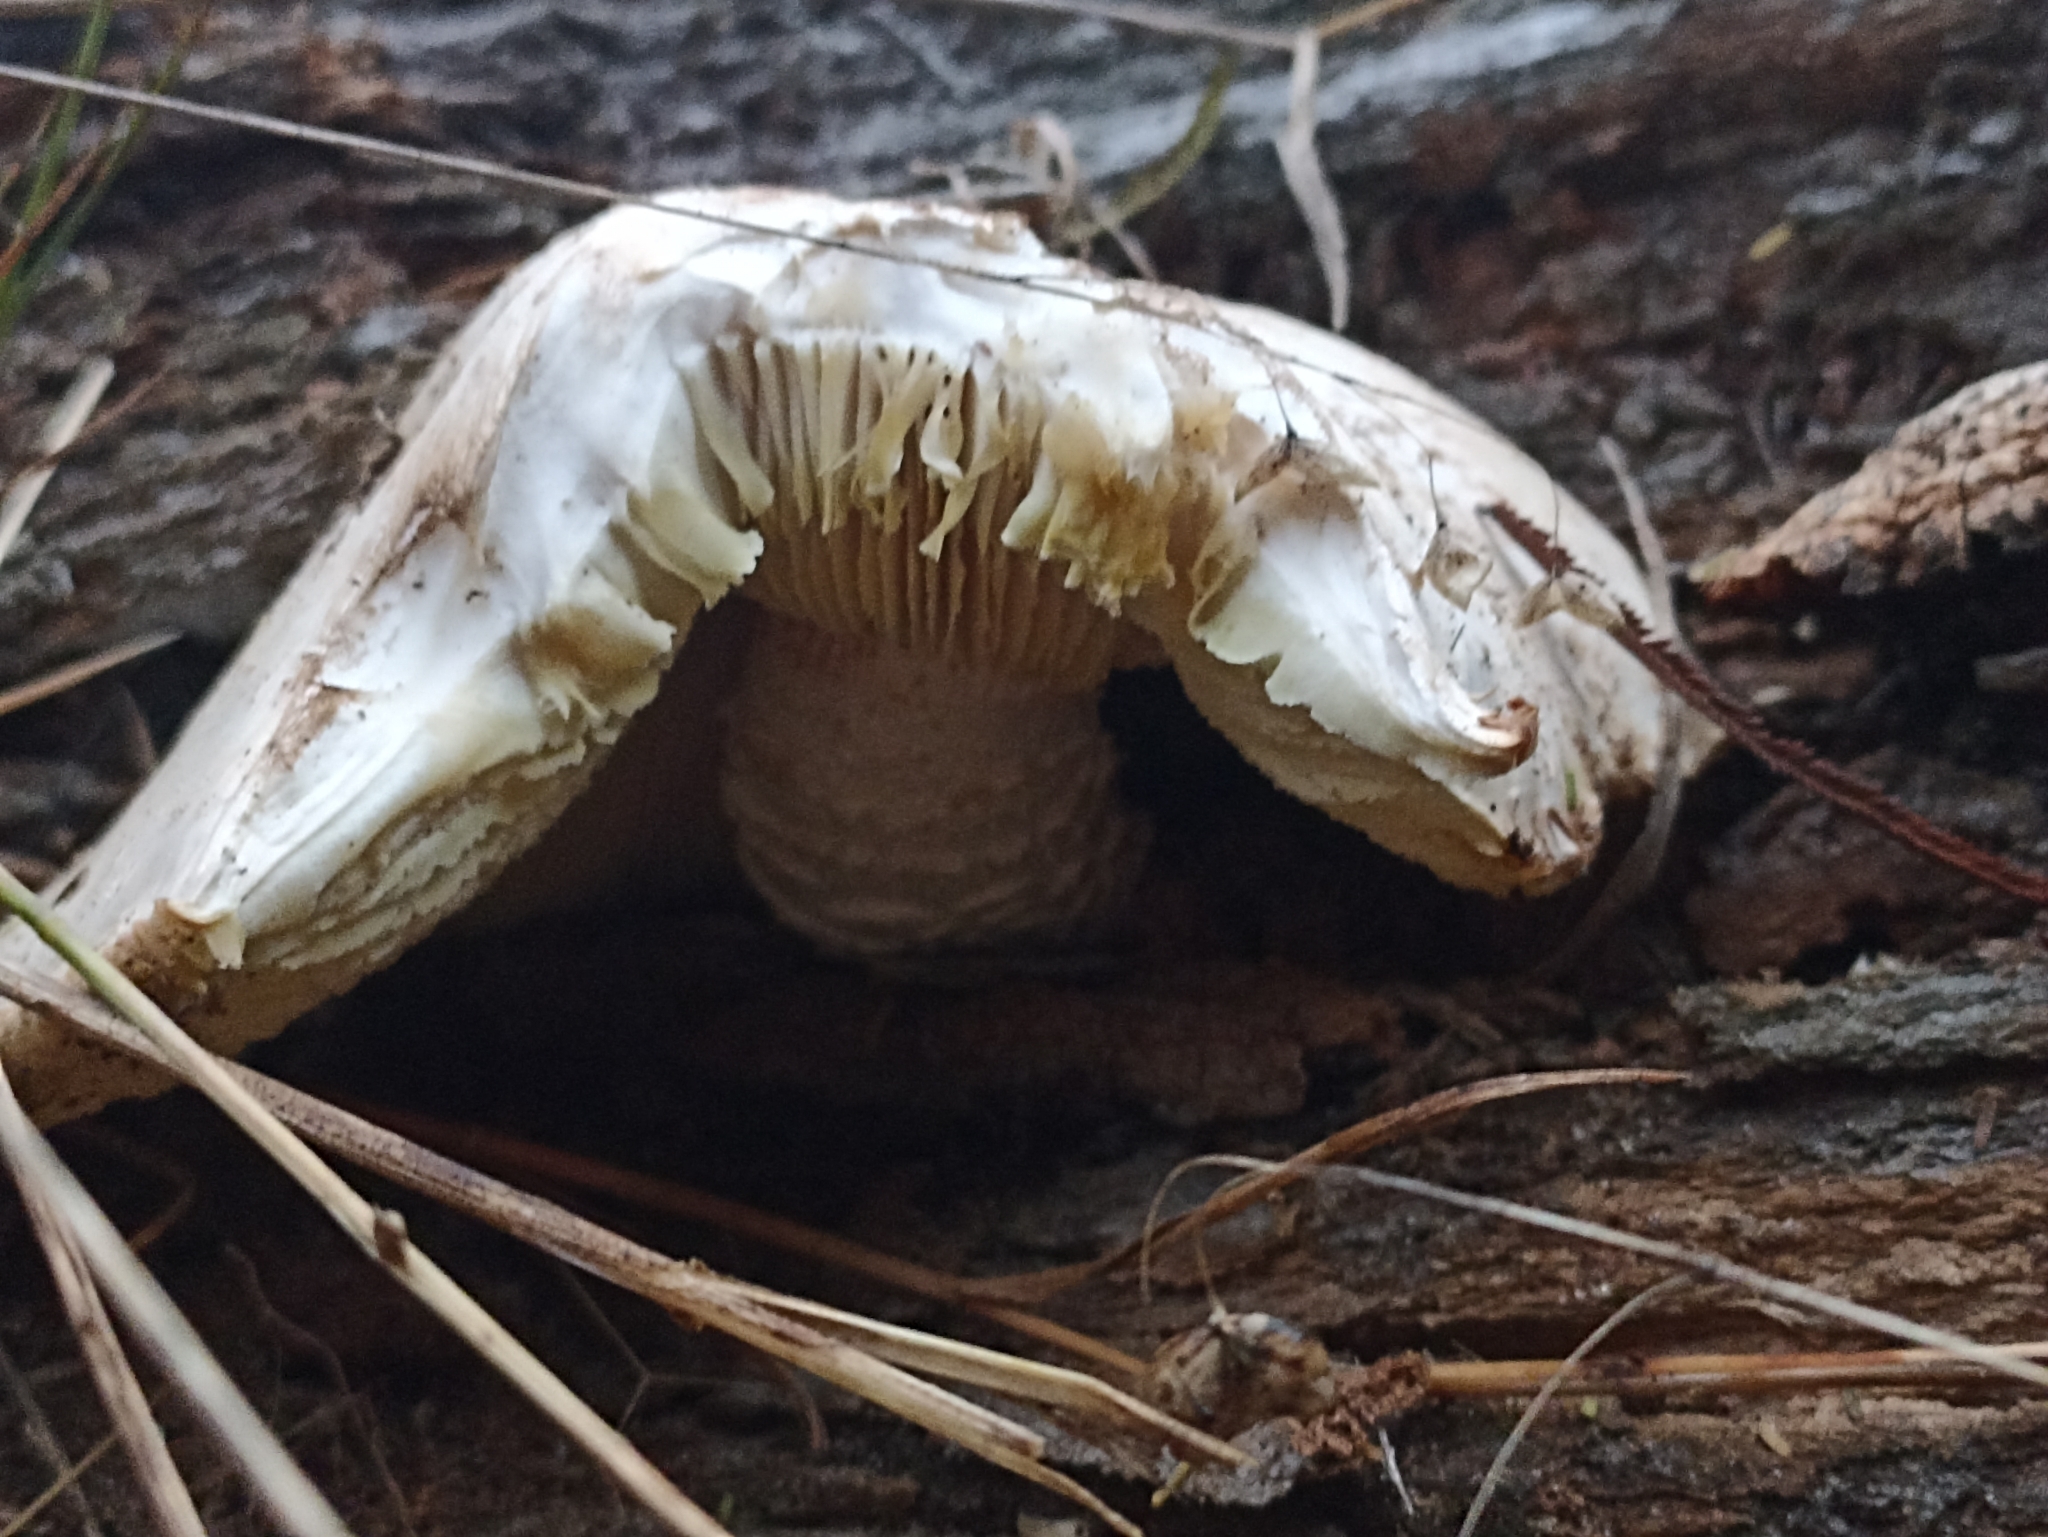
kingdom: Fungi
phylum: Basidiomycota
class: Agaricomycetes
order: Gloeophyllales
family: Gloeophyllaceae
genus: Neolentinus
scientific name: Neolentinus lepideus
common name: Scaly sawgill
